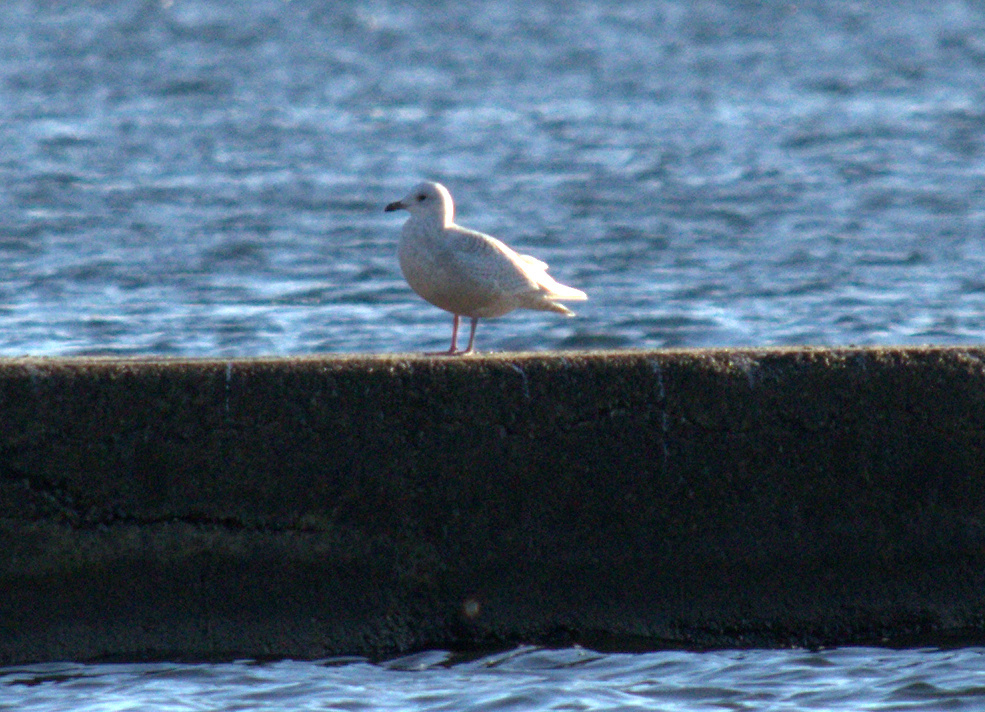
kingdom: Animalia
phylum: Chordata
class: Aves
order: Charadriiformes
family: Laridae
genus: Larus
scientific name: Larus glaucoides
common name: Iceland gull
